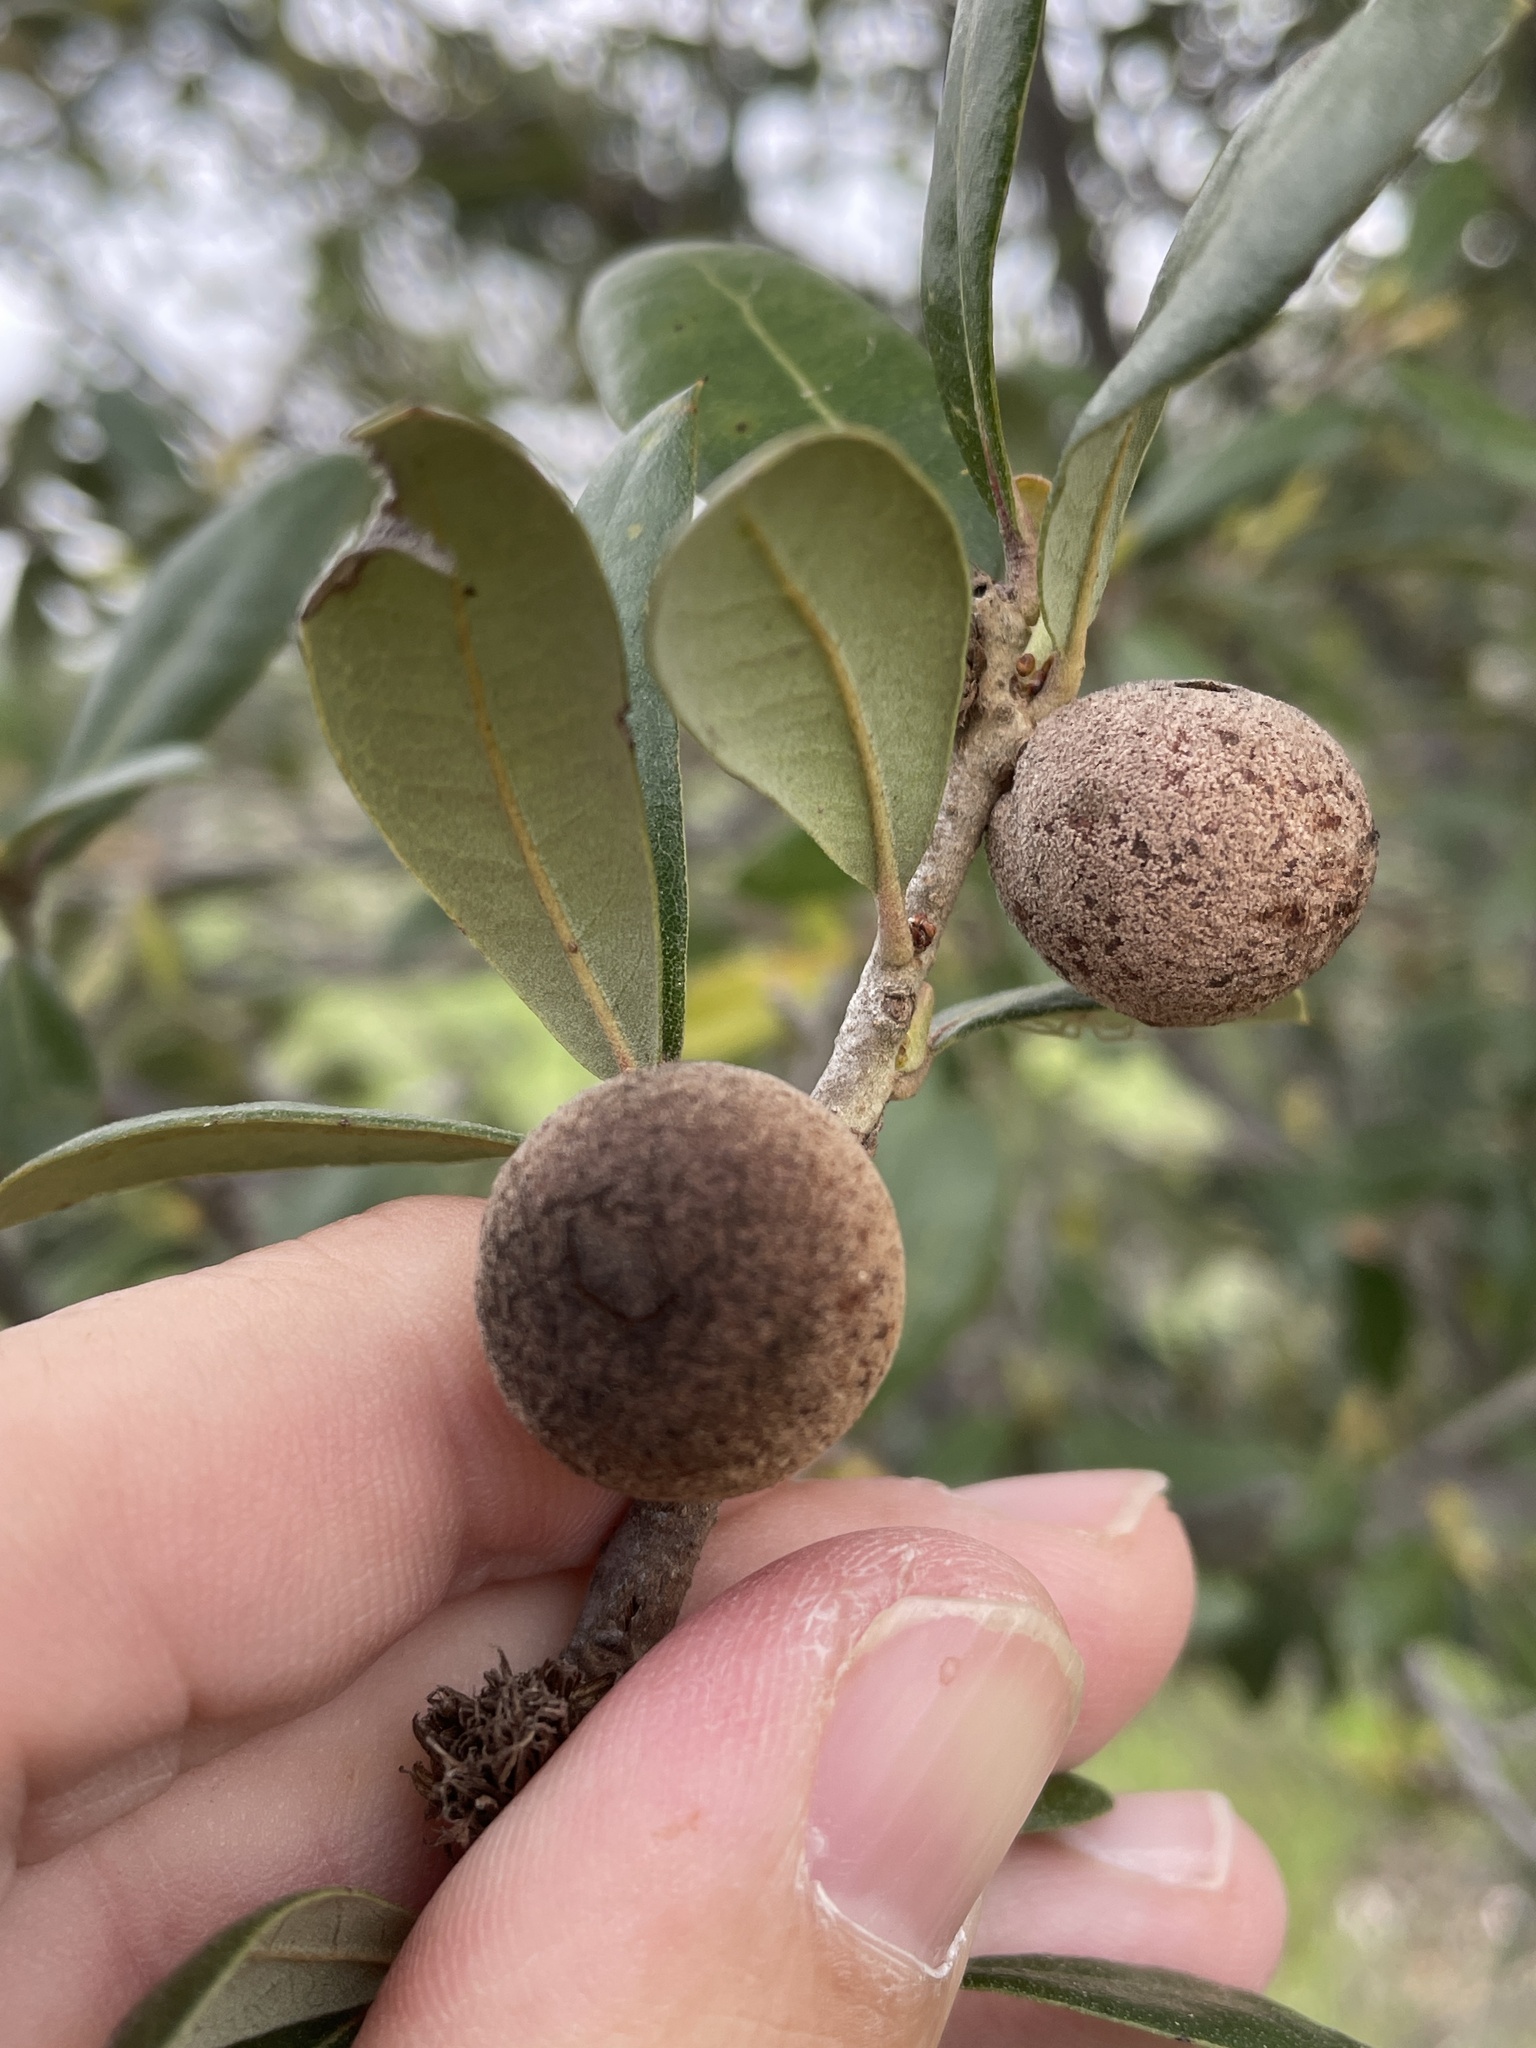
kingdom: Animalia
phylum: Arthropoda
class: Insecta
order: Hymenoptera
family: Cynipidae
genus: Disholcaspis
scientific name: Disholcaspis
